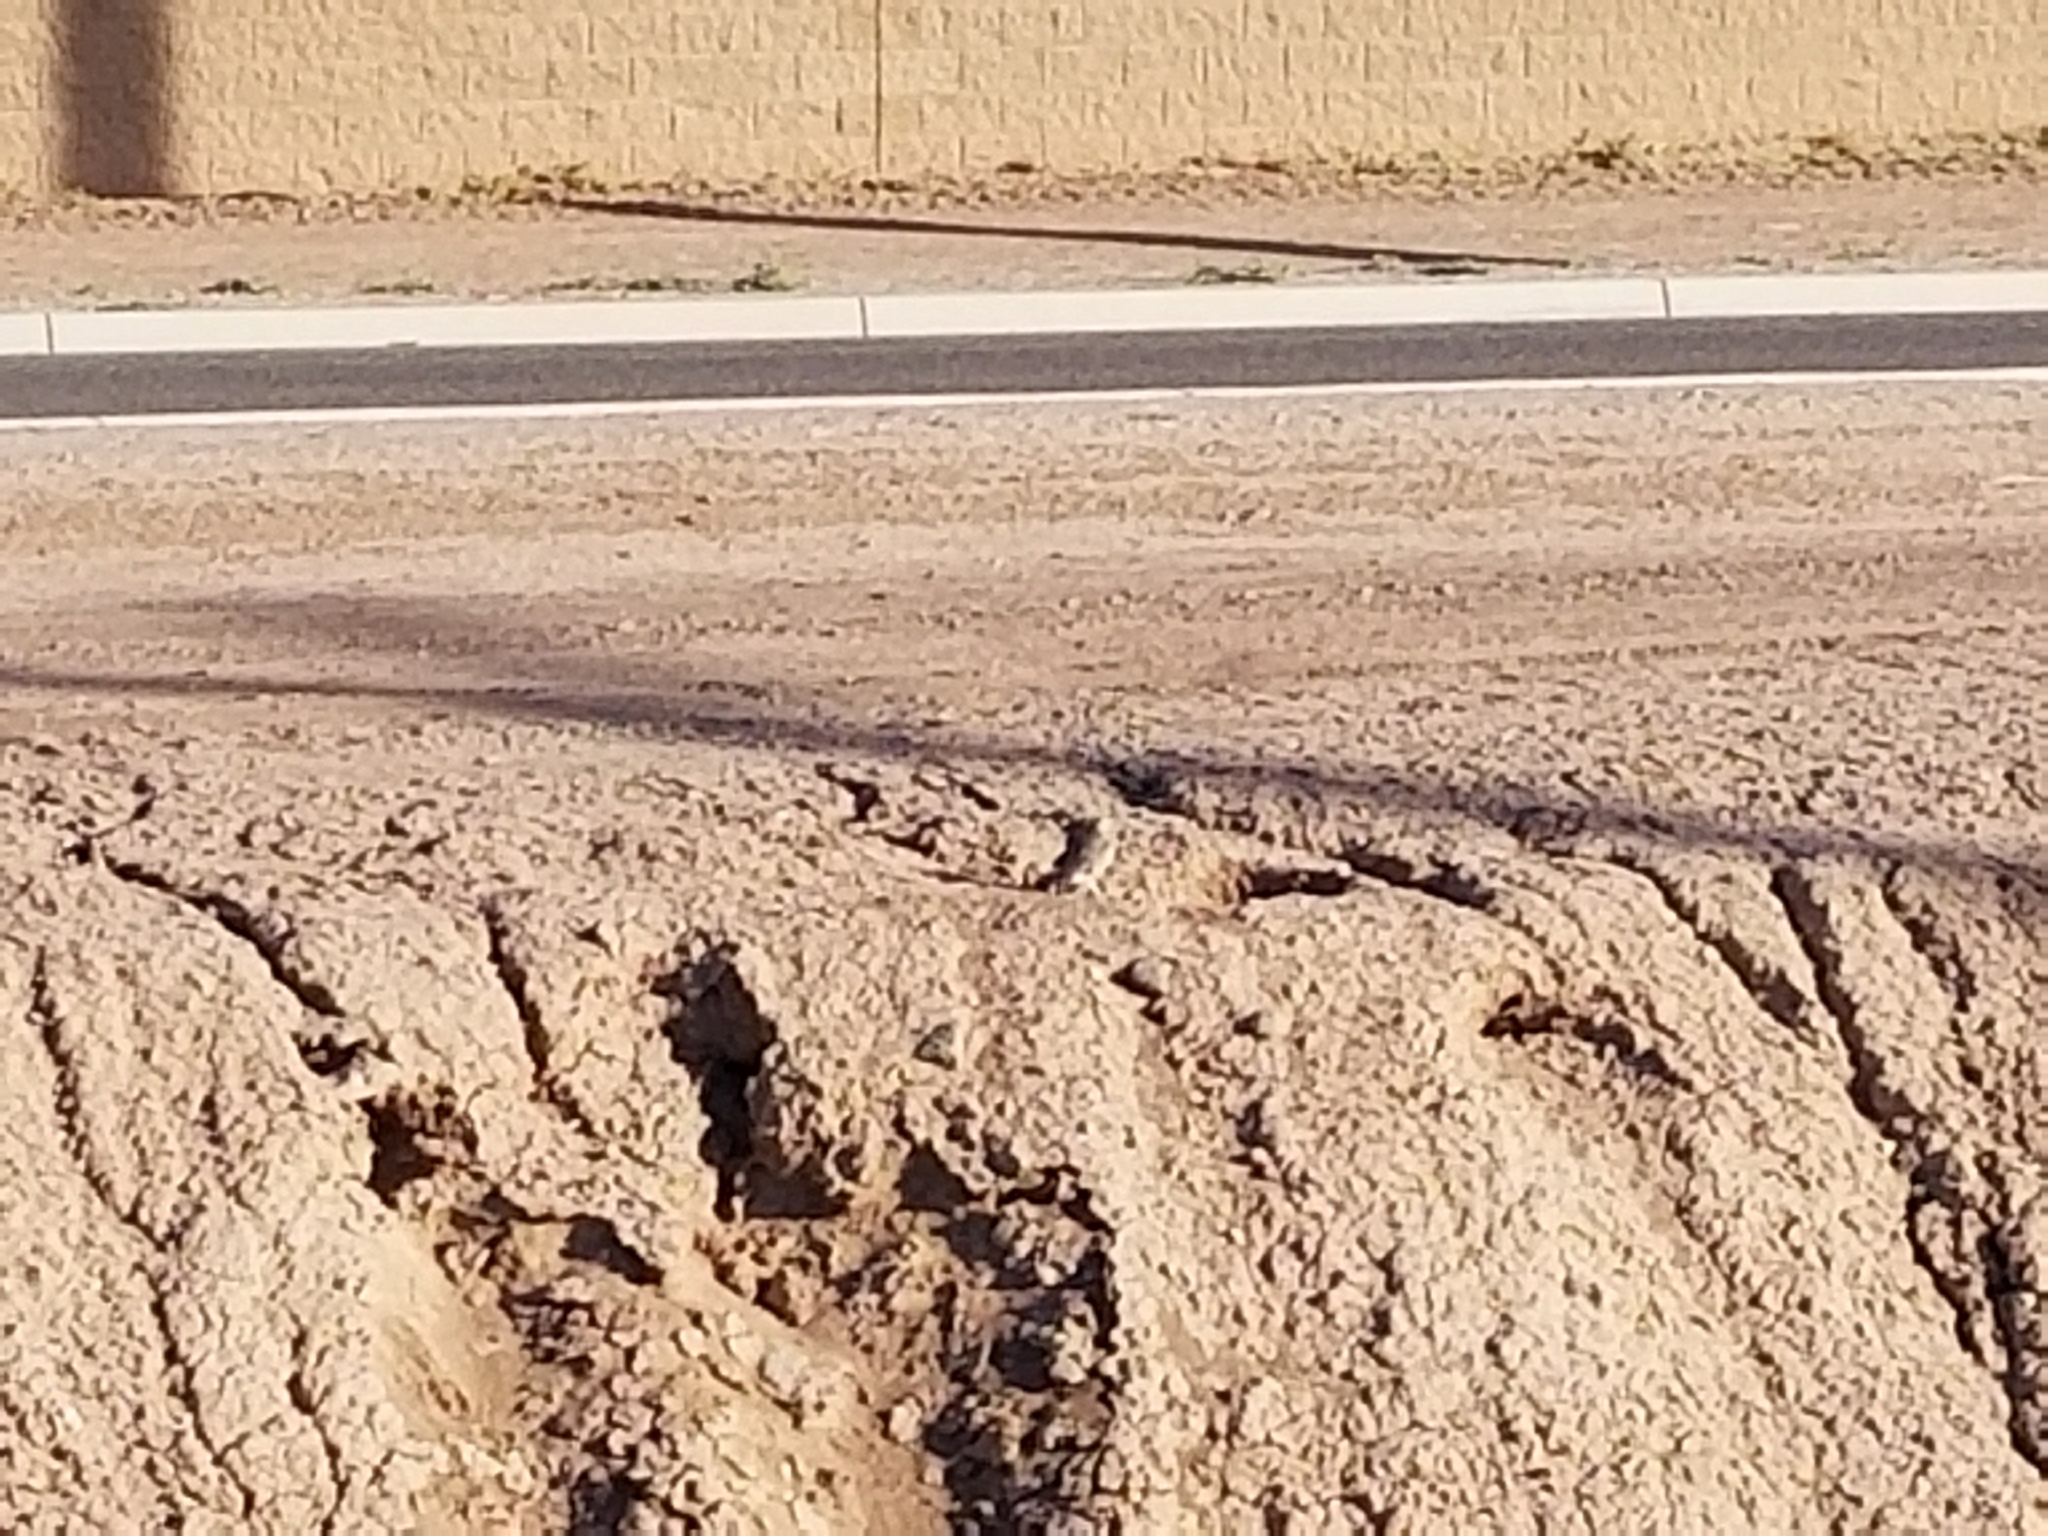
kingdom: Animalia
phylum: Chordata
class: Aves
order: Strigiformes
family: Strigidae
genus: Athene
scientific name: Athene cunicularia
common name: Burrowing owl
